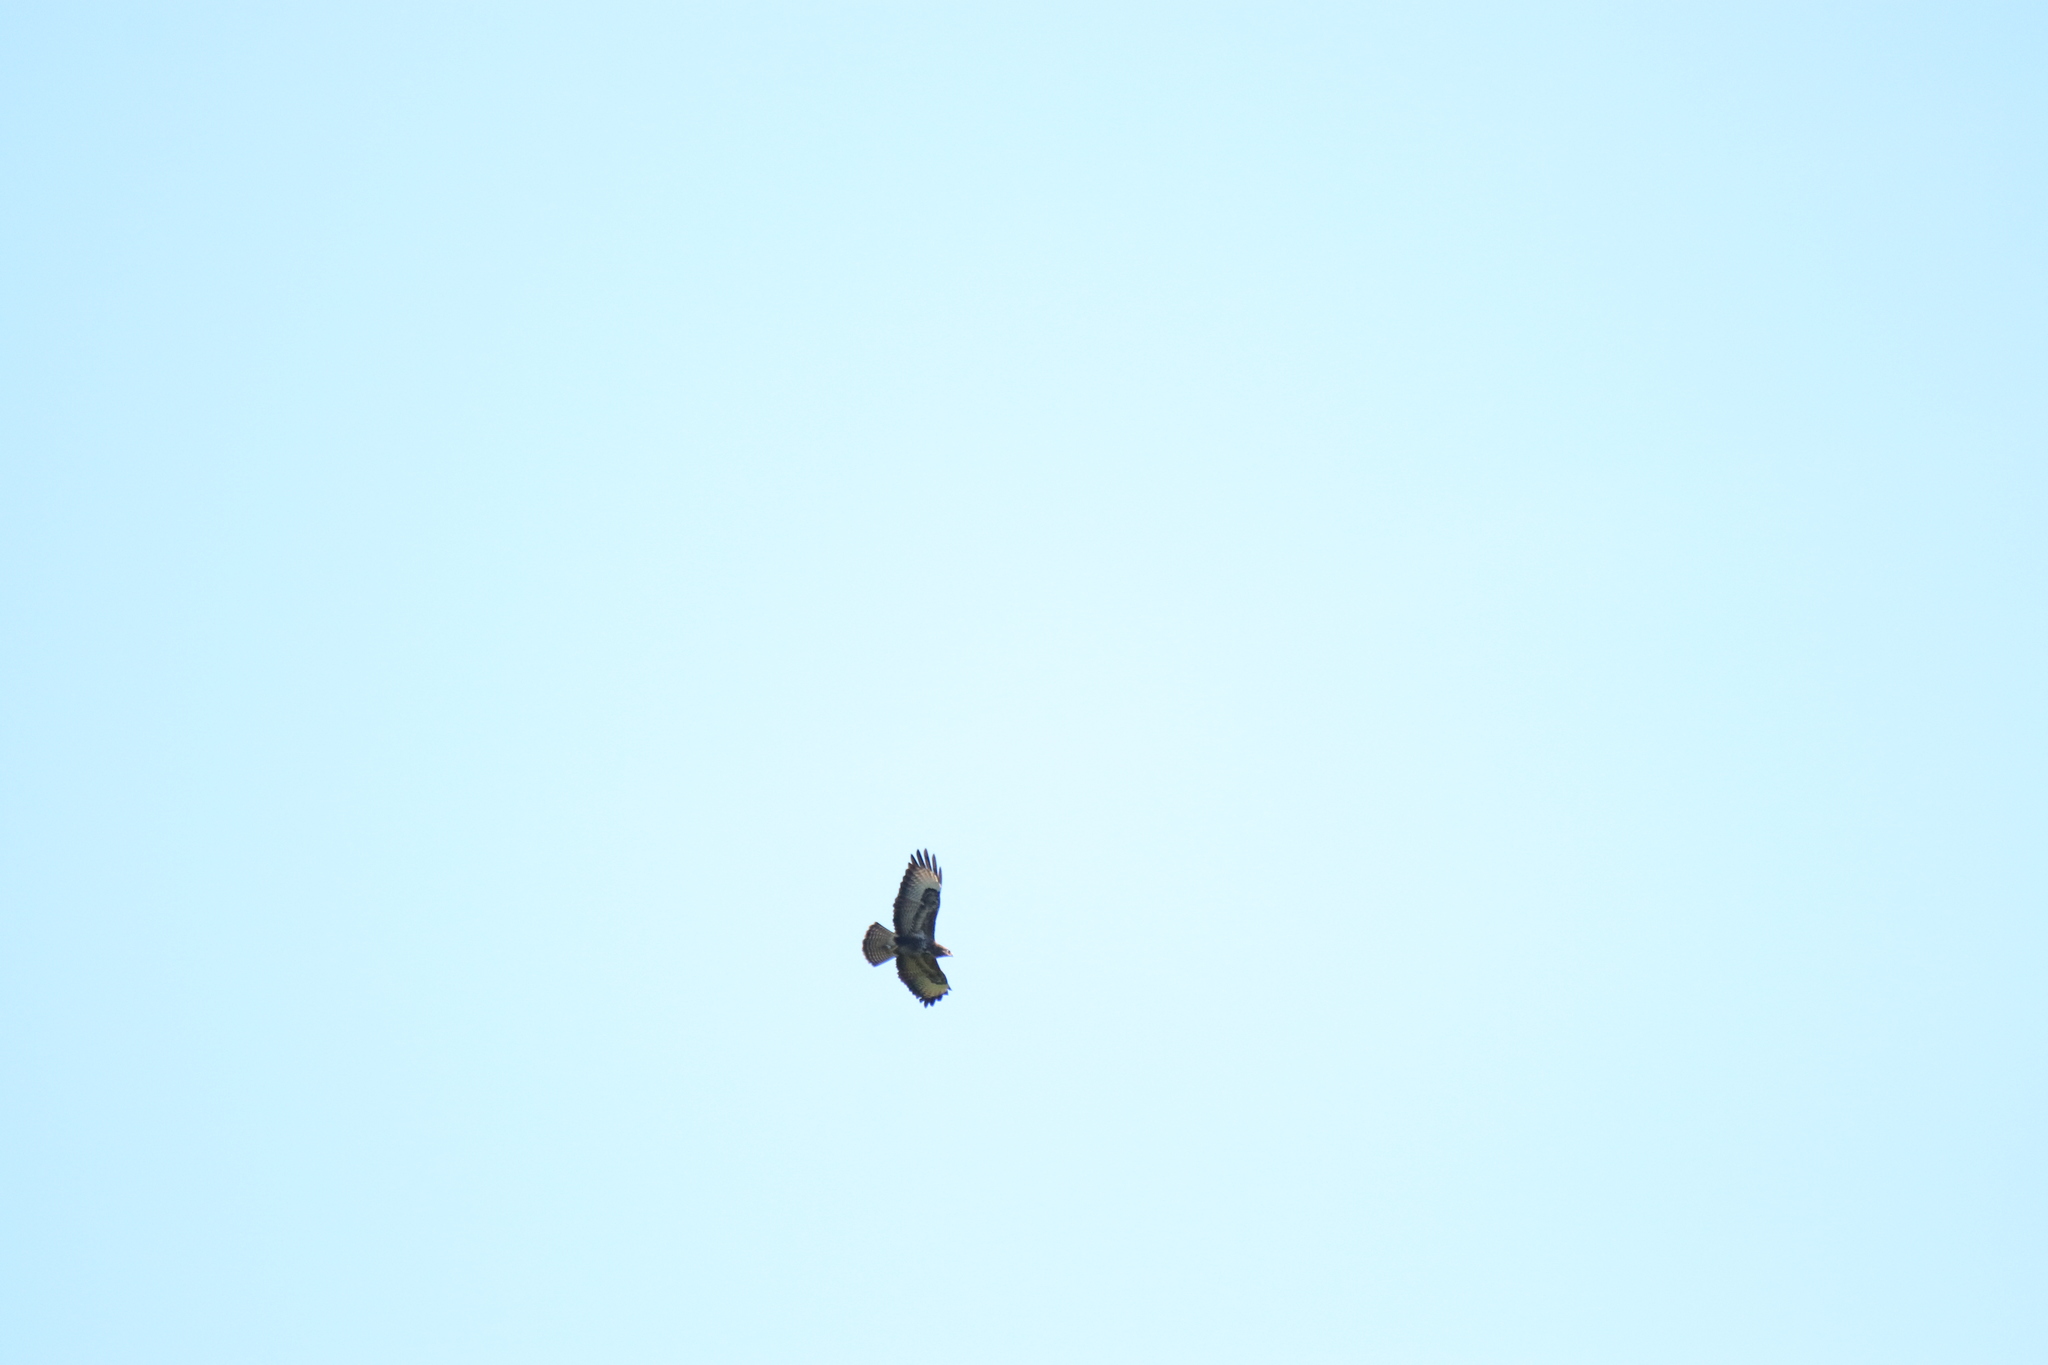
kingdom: Animalia
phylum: Chordata
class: Aves
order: Accipitriformes
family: Accipitridae
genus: Buteo
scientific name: Buteo buteo
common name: Common buzzard
